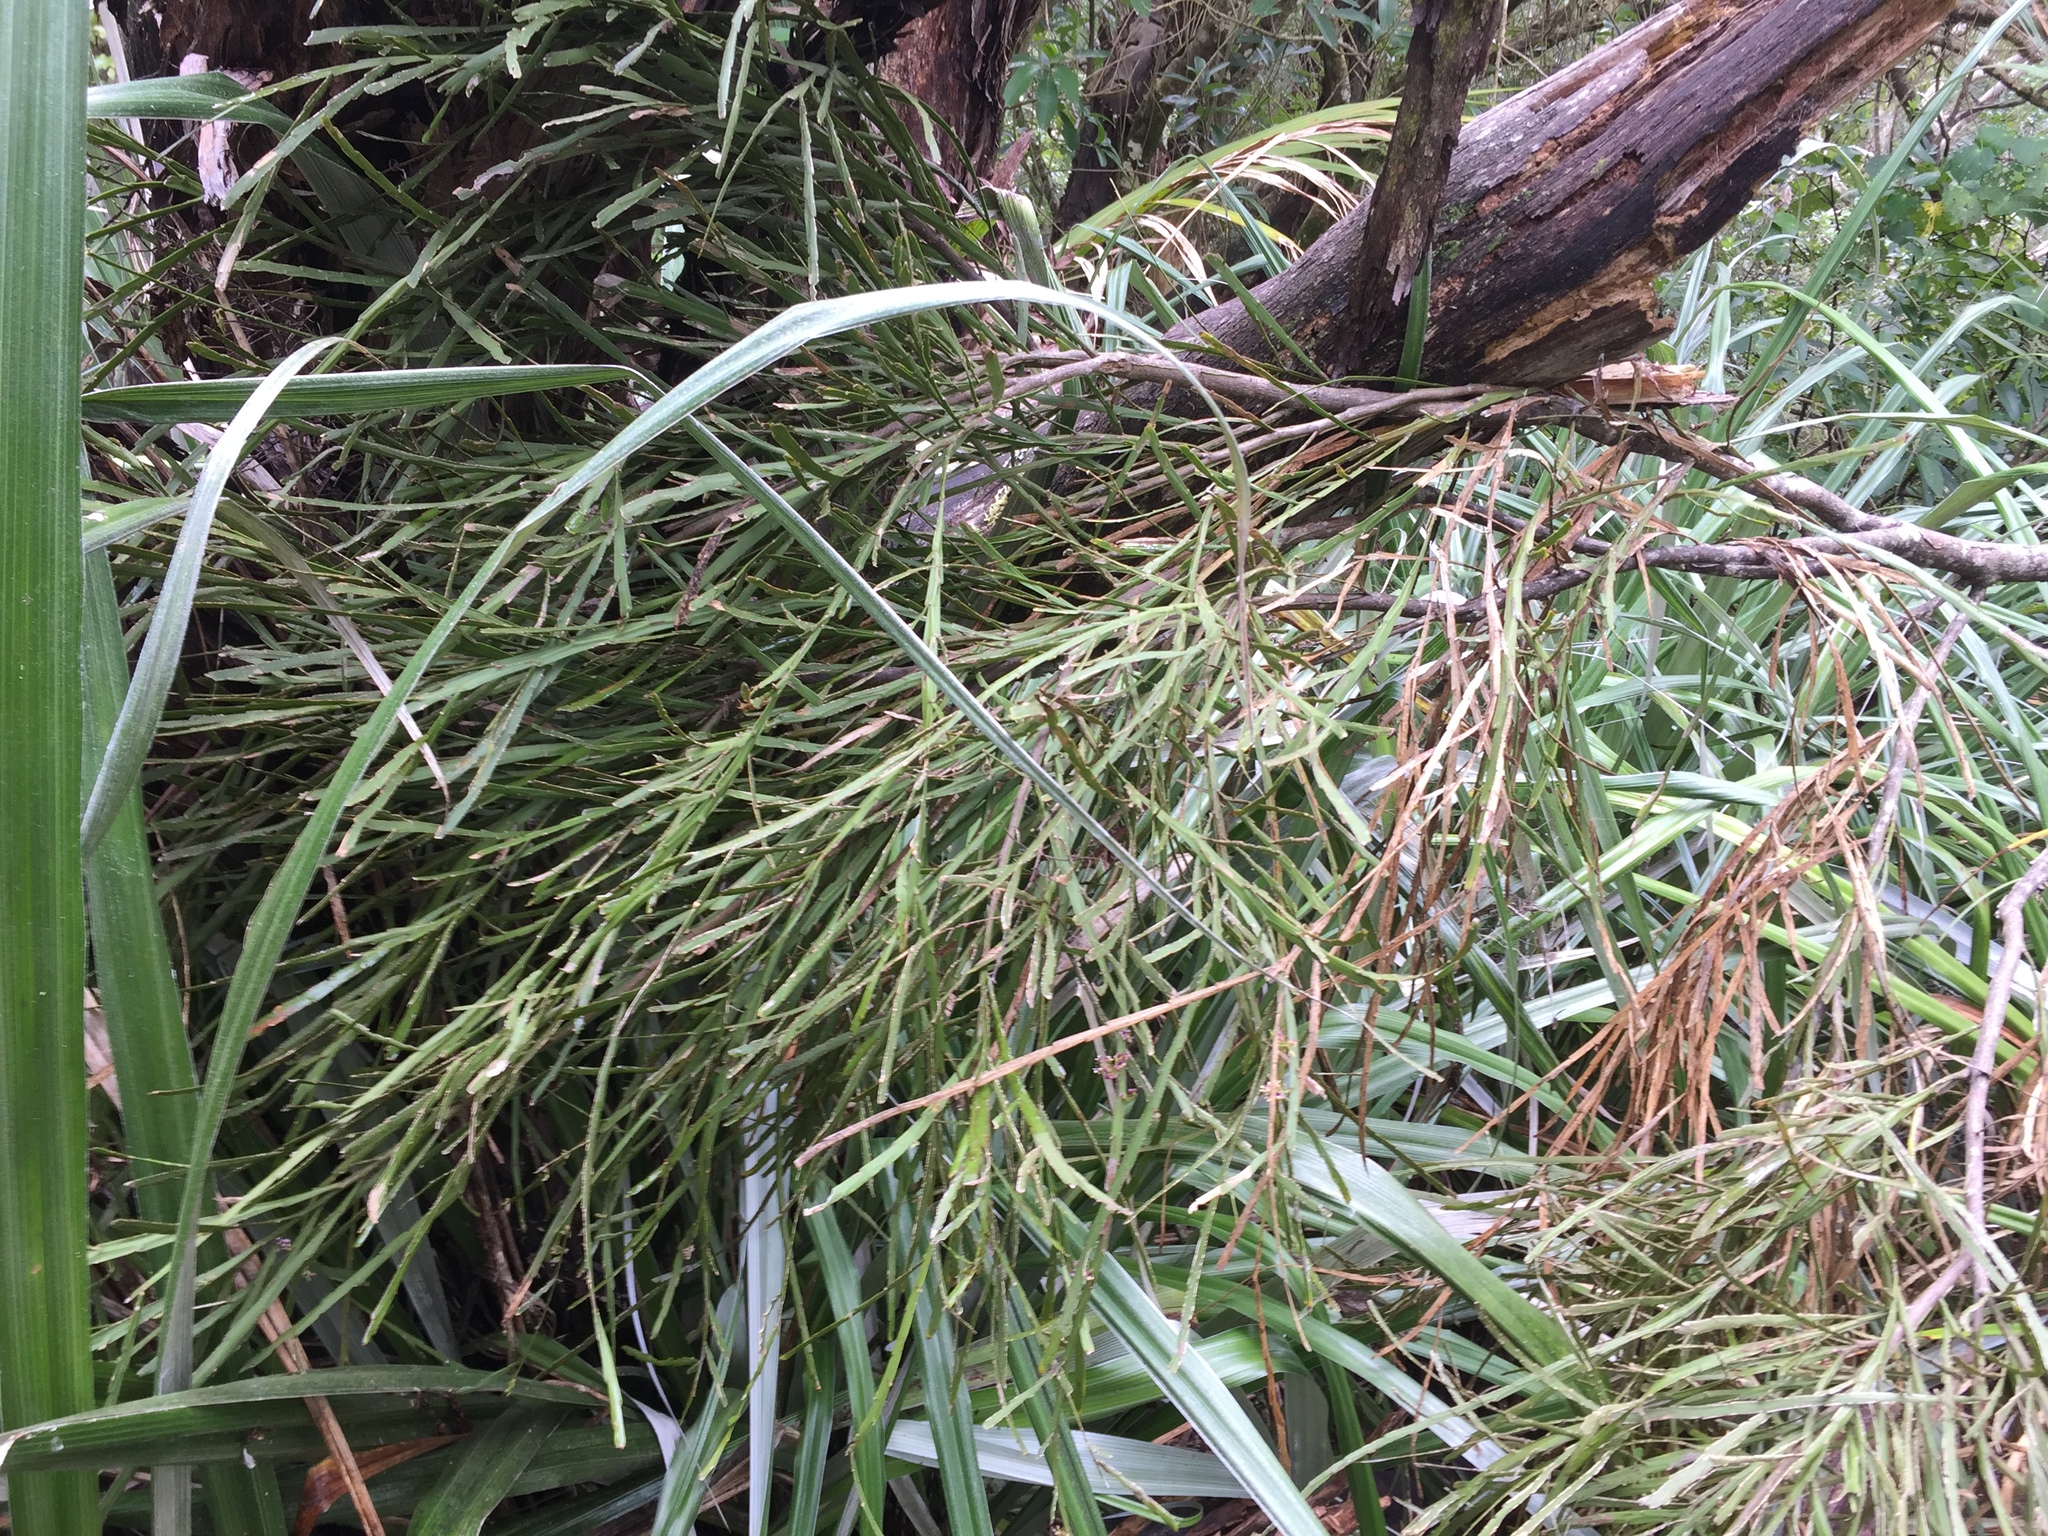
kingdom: Plantae
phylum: Tracheophyta
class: Magnoliopsida
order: Fabales
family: Fabaceae
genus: Carmichaelia
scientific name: Carmichaelia australis
